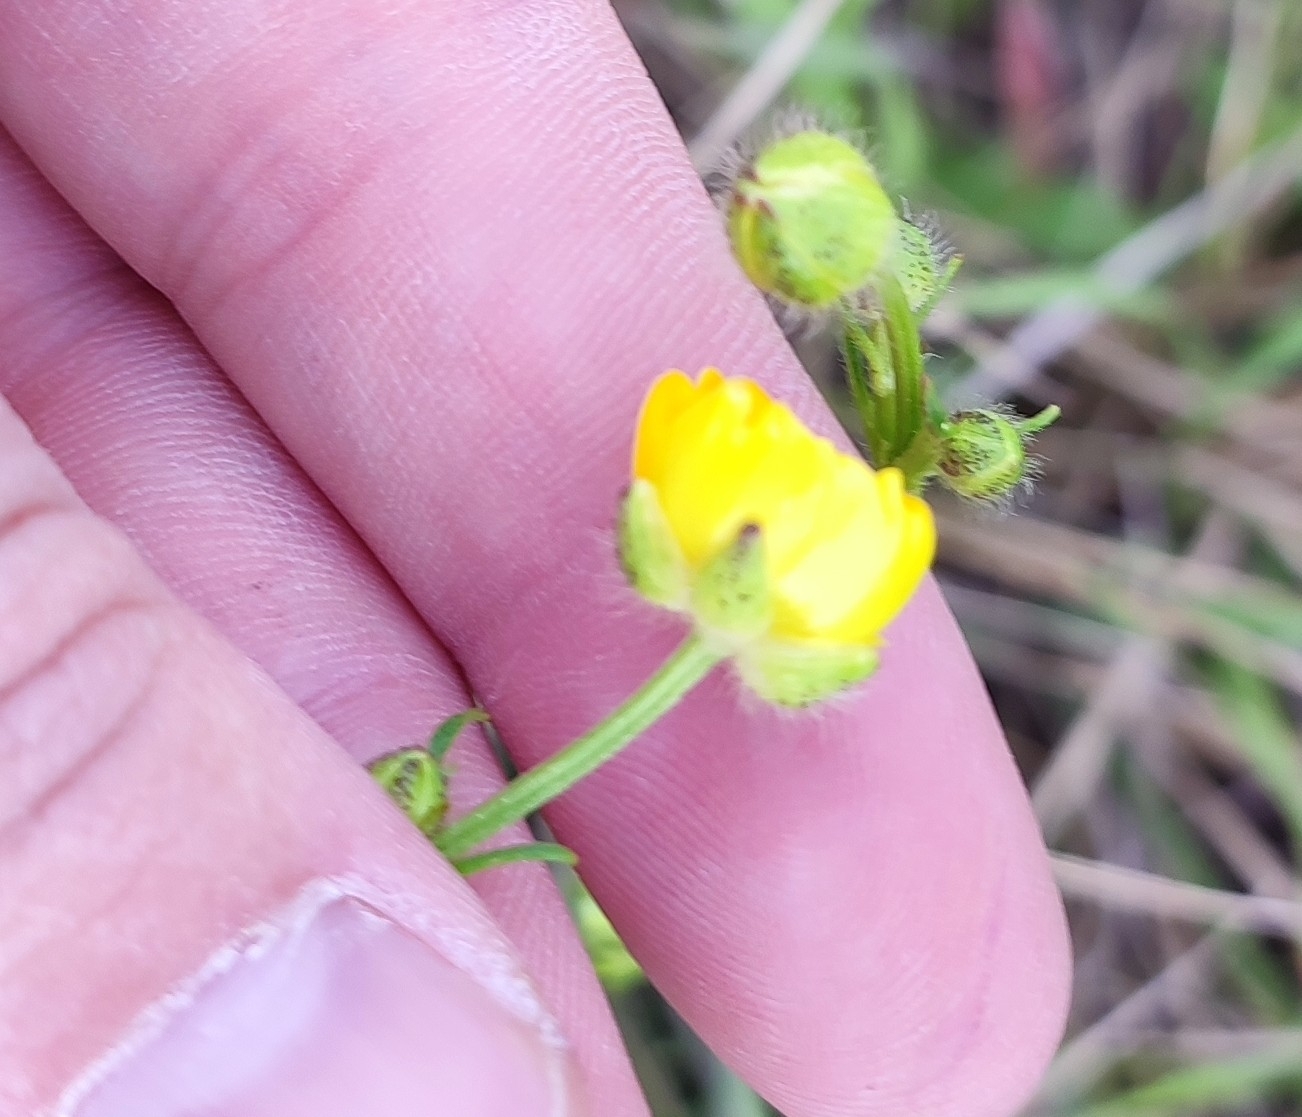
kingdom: Plantae
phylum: Tracheophyta
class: Magnoliopsida
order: Ranunculales
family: Ranunculaceae
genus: Ranunculus
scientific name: Ranunculus polyanthemos
